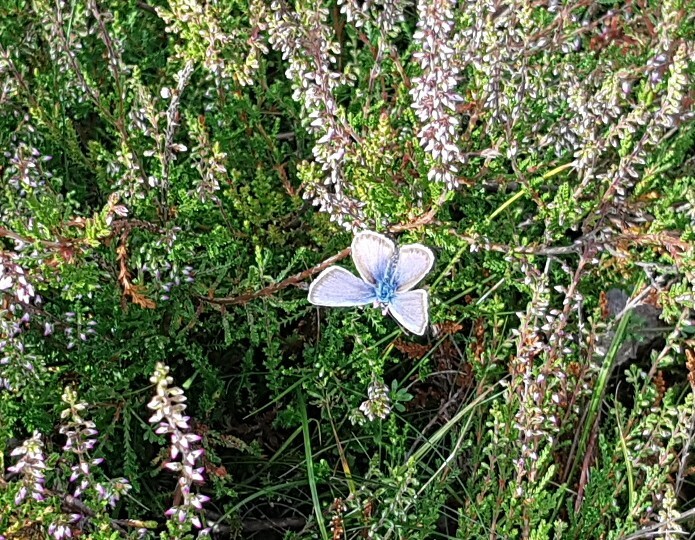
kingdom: Animalia
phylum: Arthropoda
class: Insecta
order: Lepidoptera
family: Lycaenidae
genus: Plebejus
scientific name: Plebejus argus
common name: Silver-studded blue
